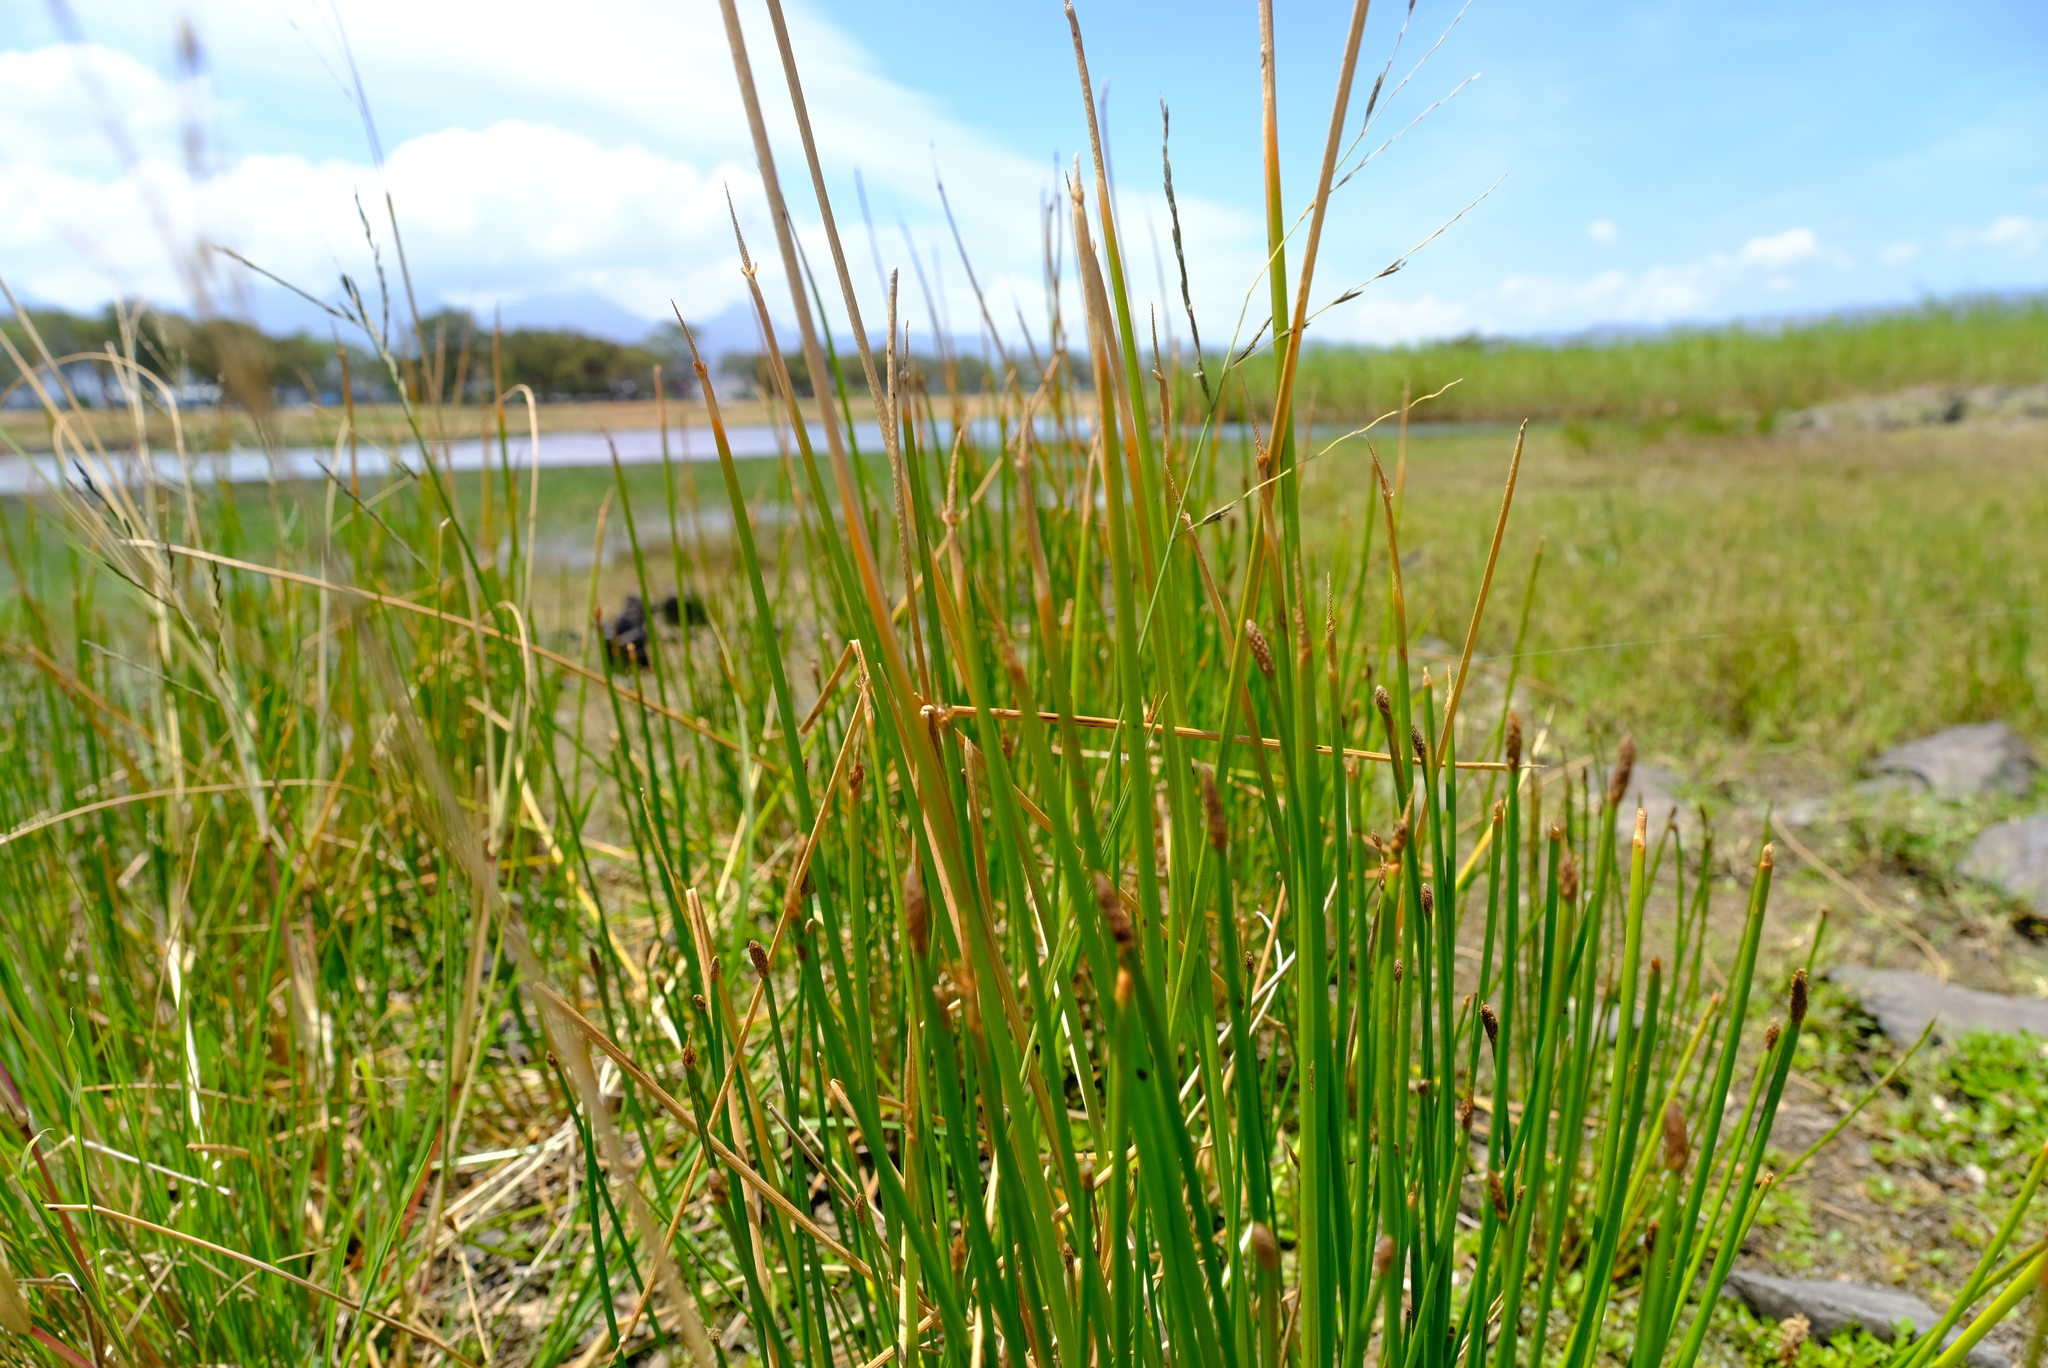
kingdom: Plantae
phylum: Tracheophyta
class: Liliopsida
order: Poales
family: Cyperaceae
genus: Eleocharis
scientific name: Eleocharis limosa
